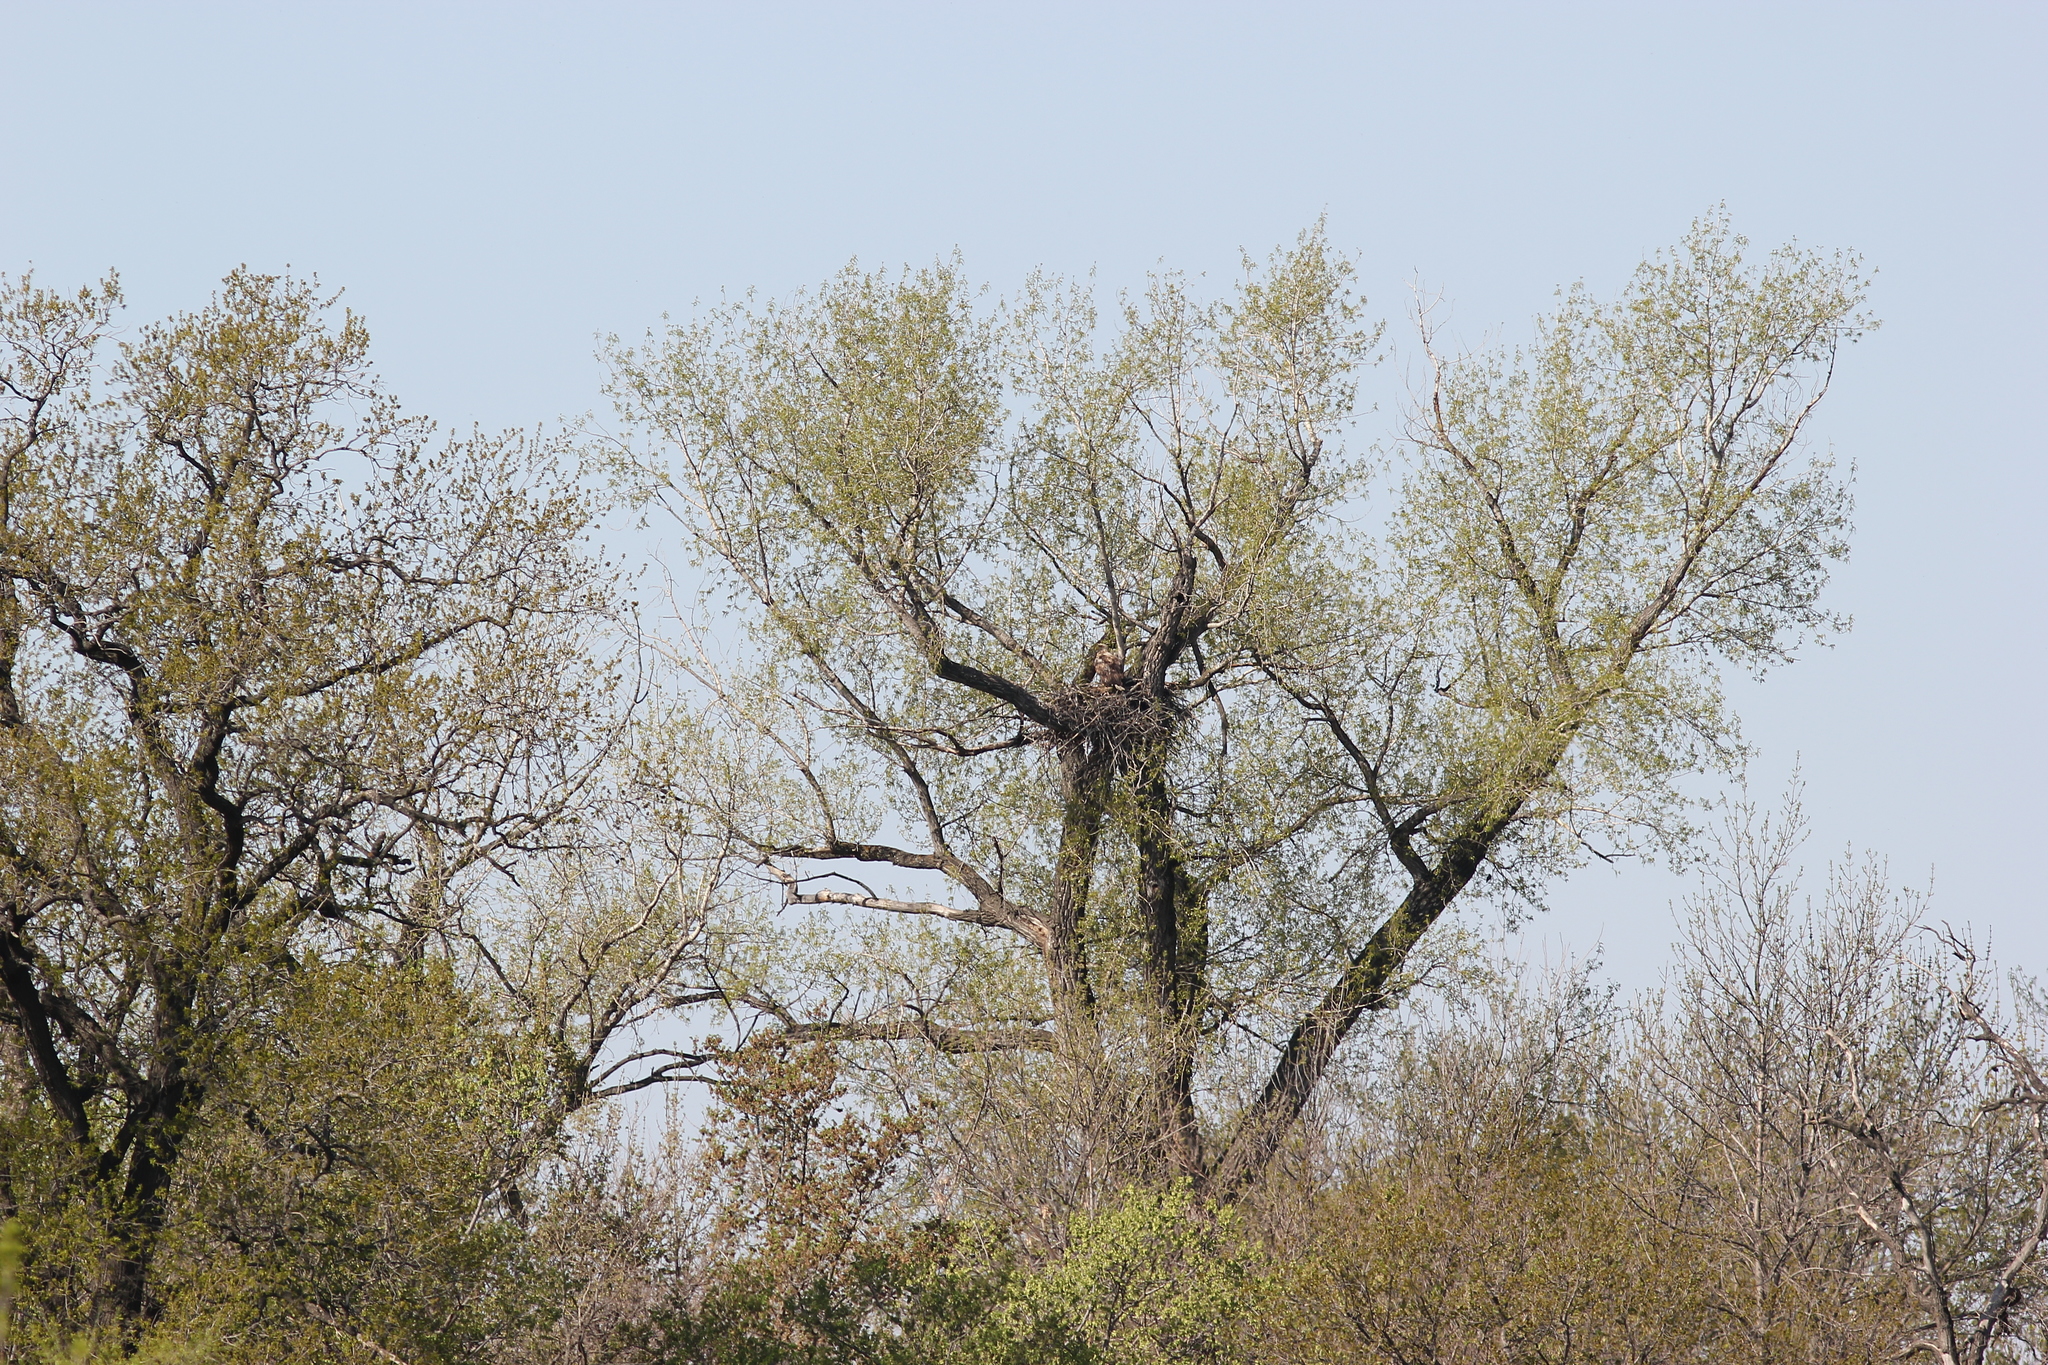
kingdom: Animalia
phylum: Chordata
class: Aves
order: Accipitriformes
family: Accipitridae
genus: Haliaeetus
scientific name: Haliaeetus albicilla
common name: White-tailed eagle
